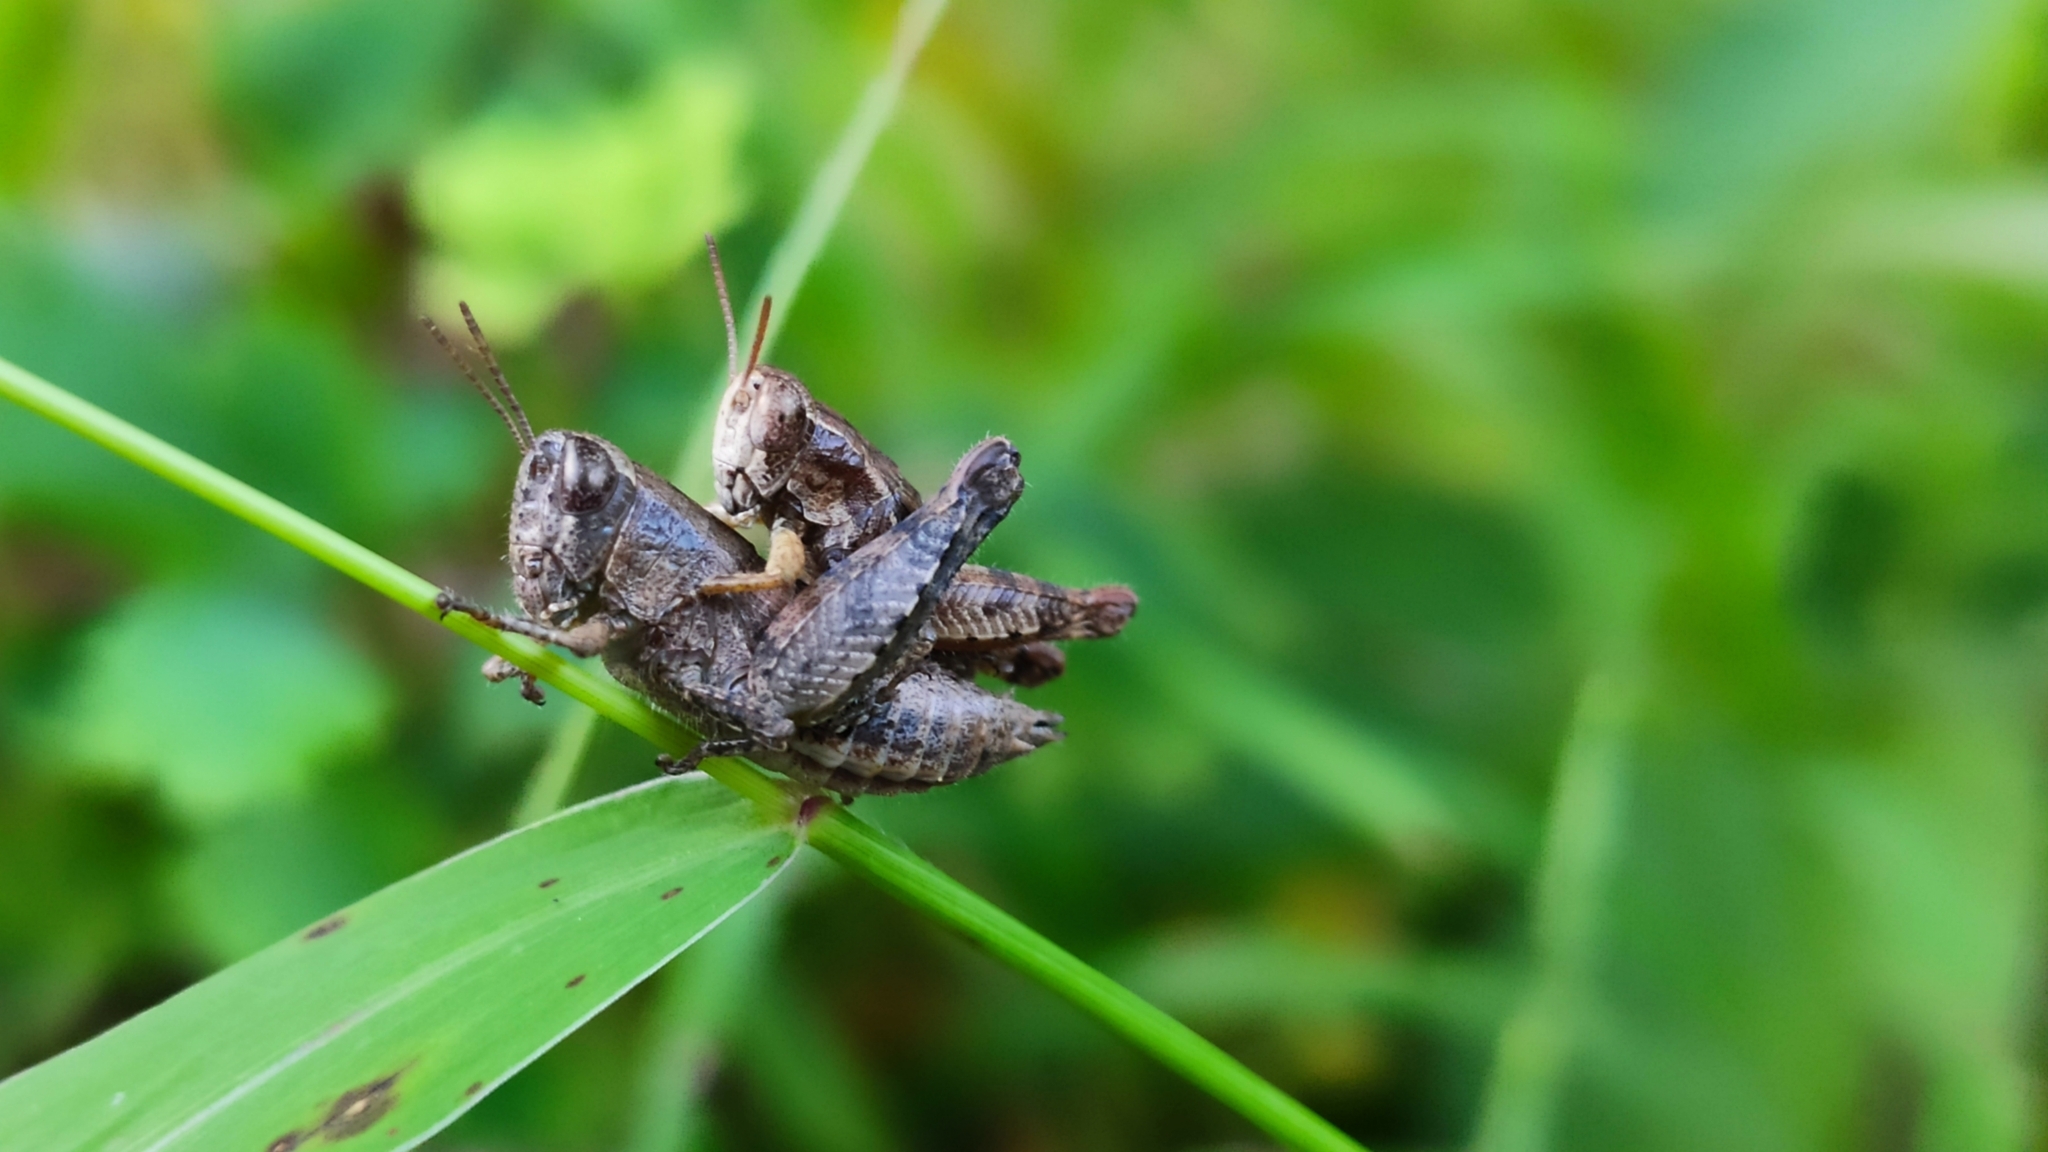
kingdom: Animalia
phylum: Arthropoda
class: Insecta
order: Orthoptera
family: Acrididae
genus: Pezotettix
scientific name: Pezotettix giornae
